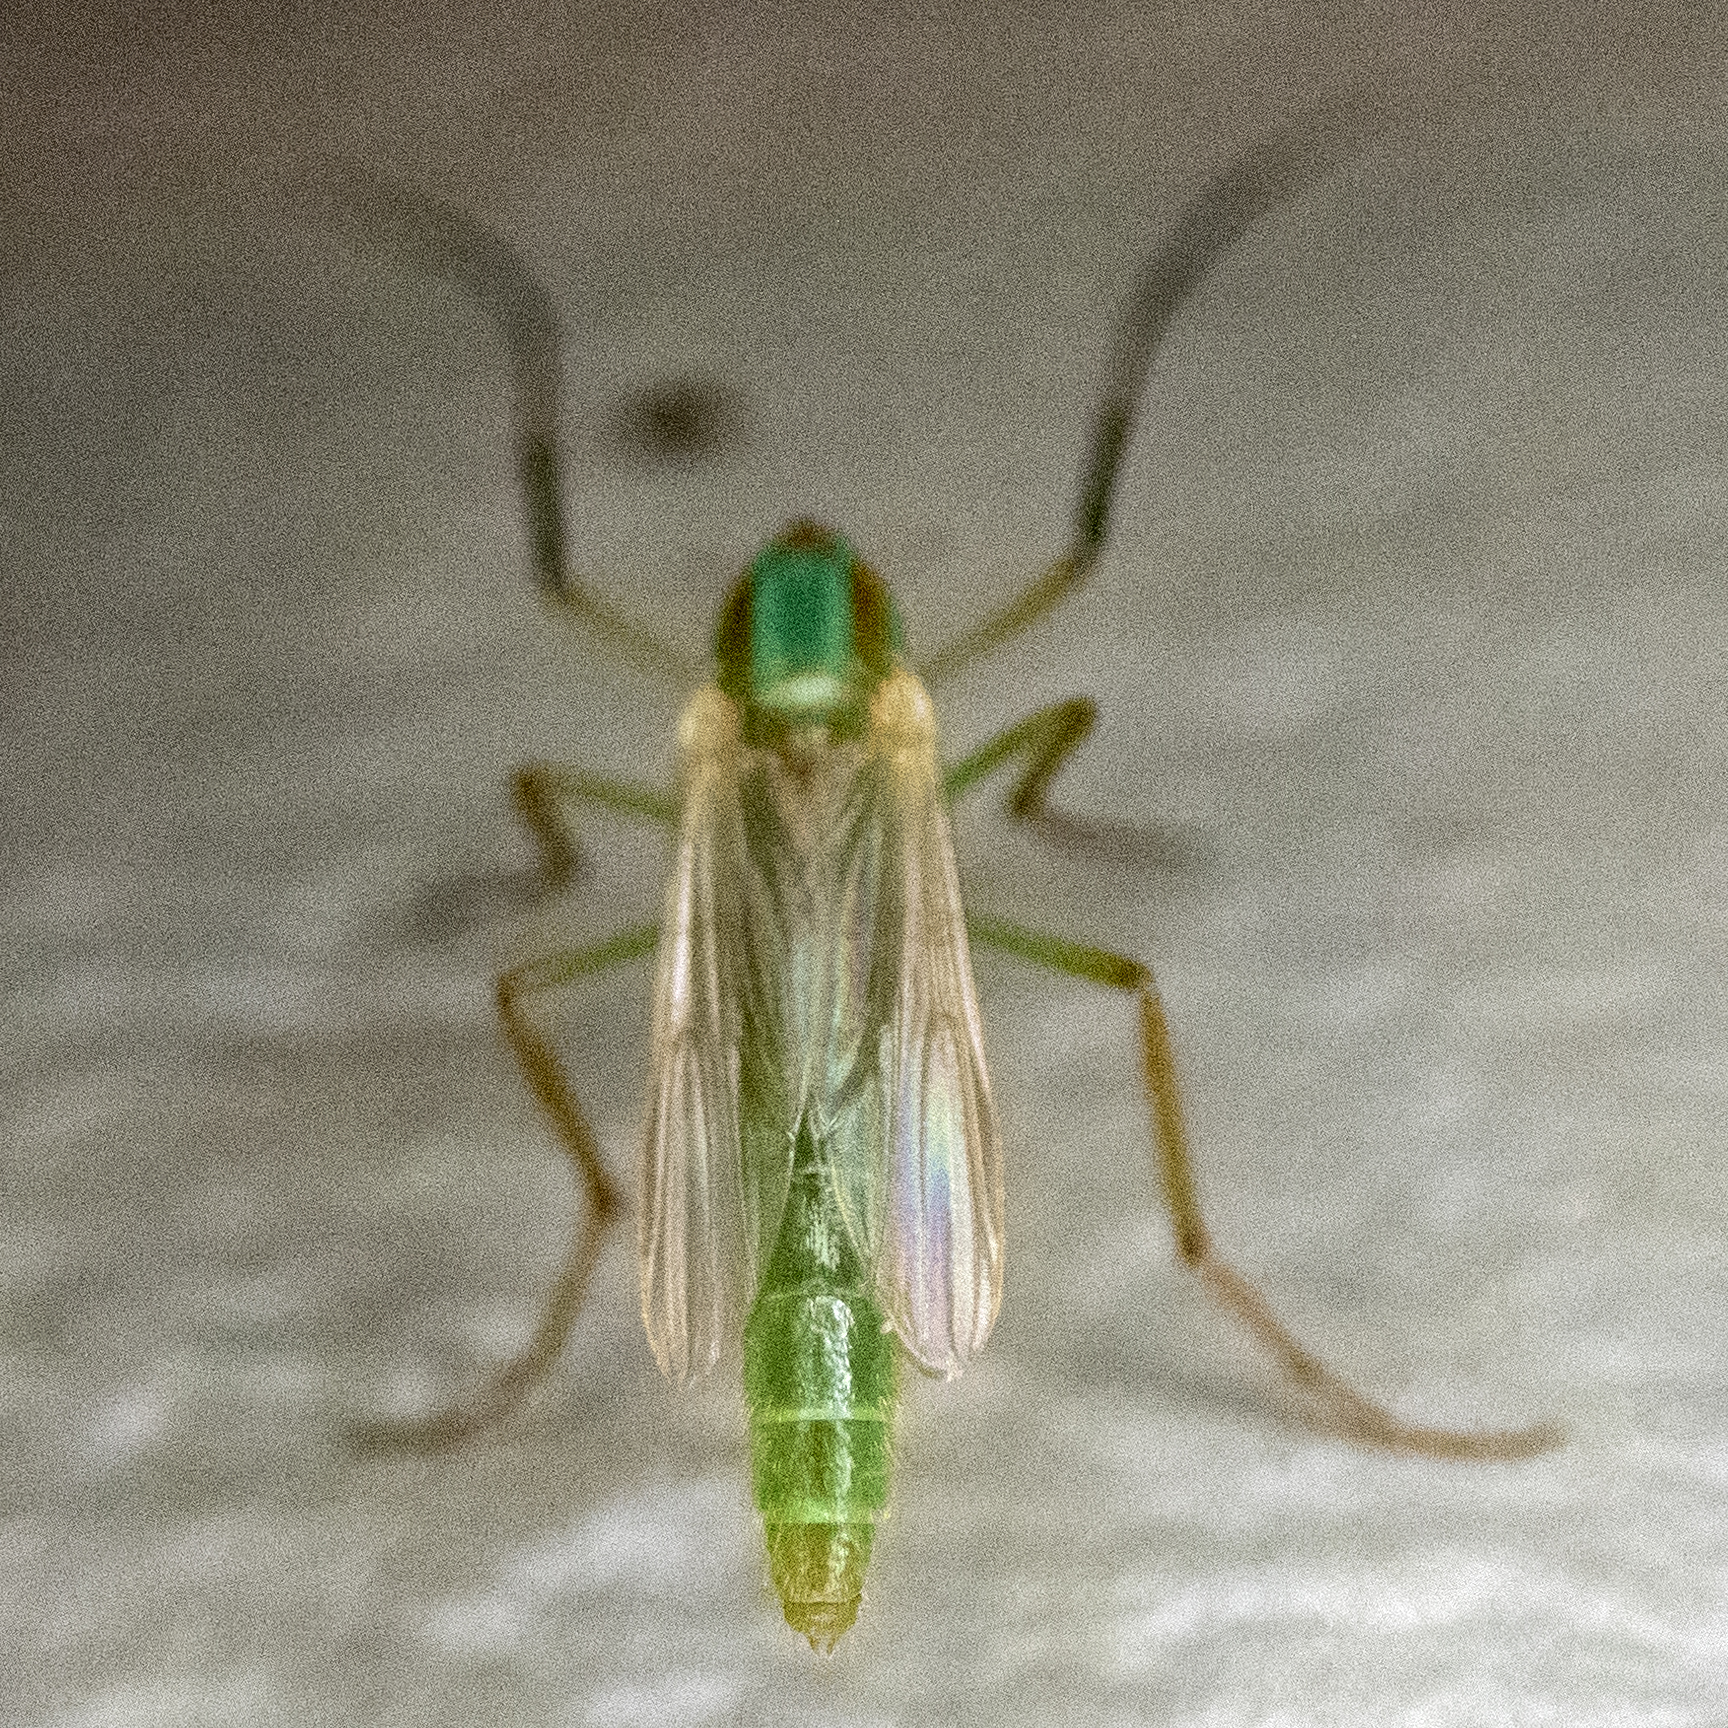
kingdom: Animalia
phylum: Arthropoda
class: Insecta
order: Diptera
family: Chironomidae
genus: Axarus
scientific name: Axarus
